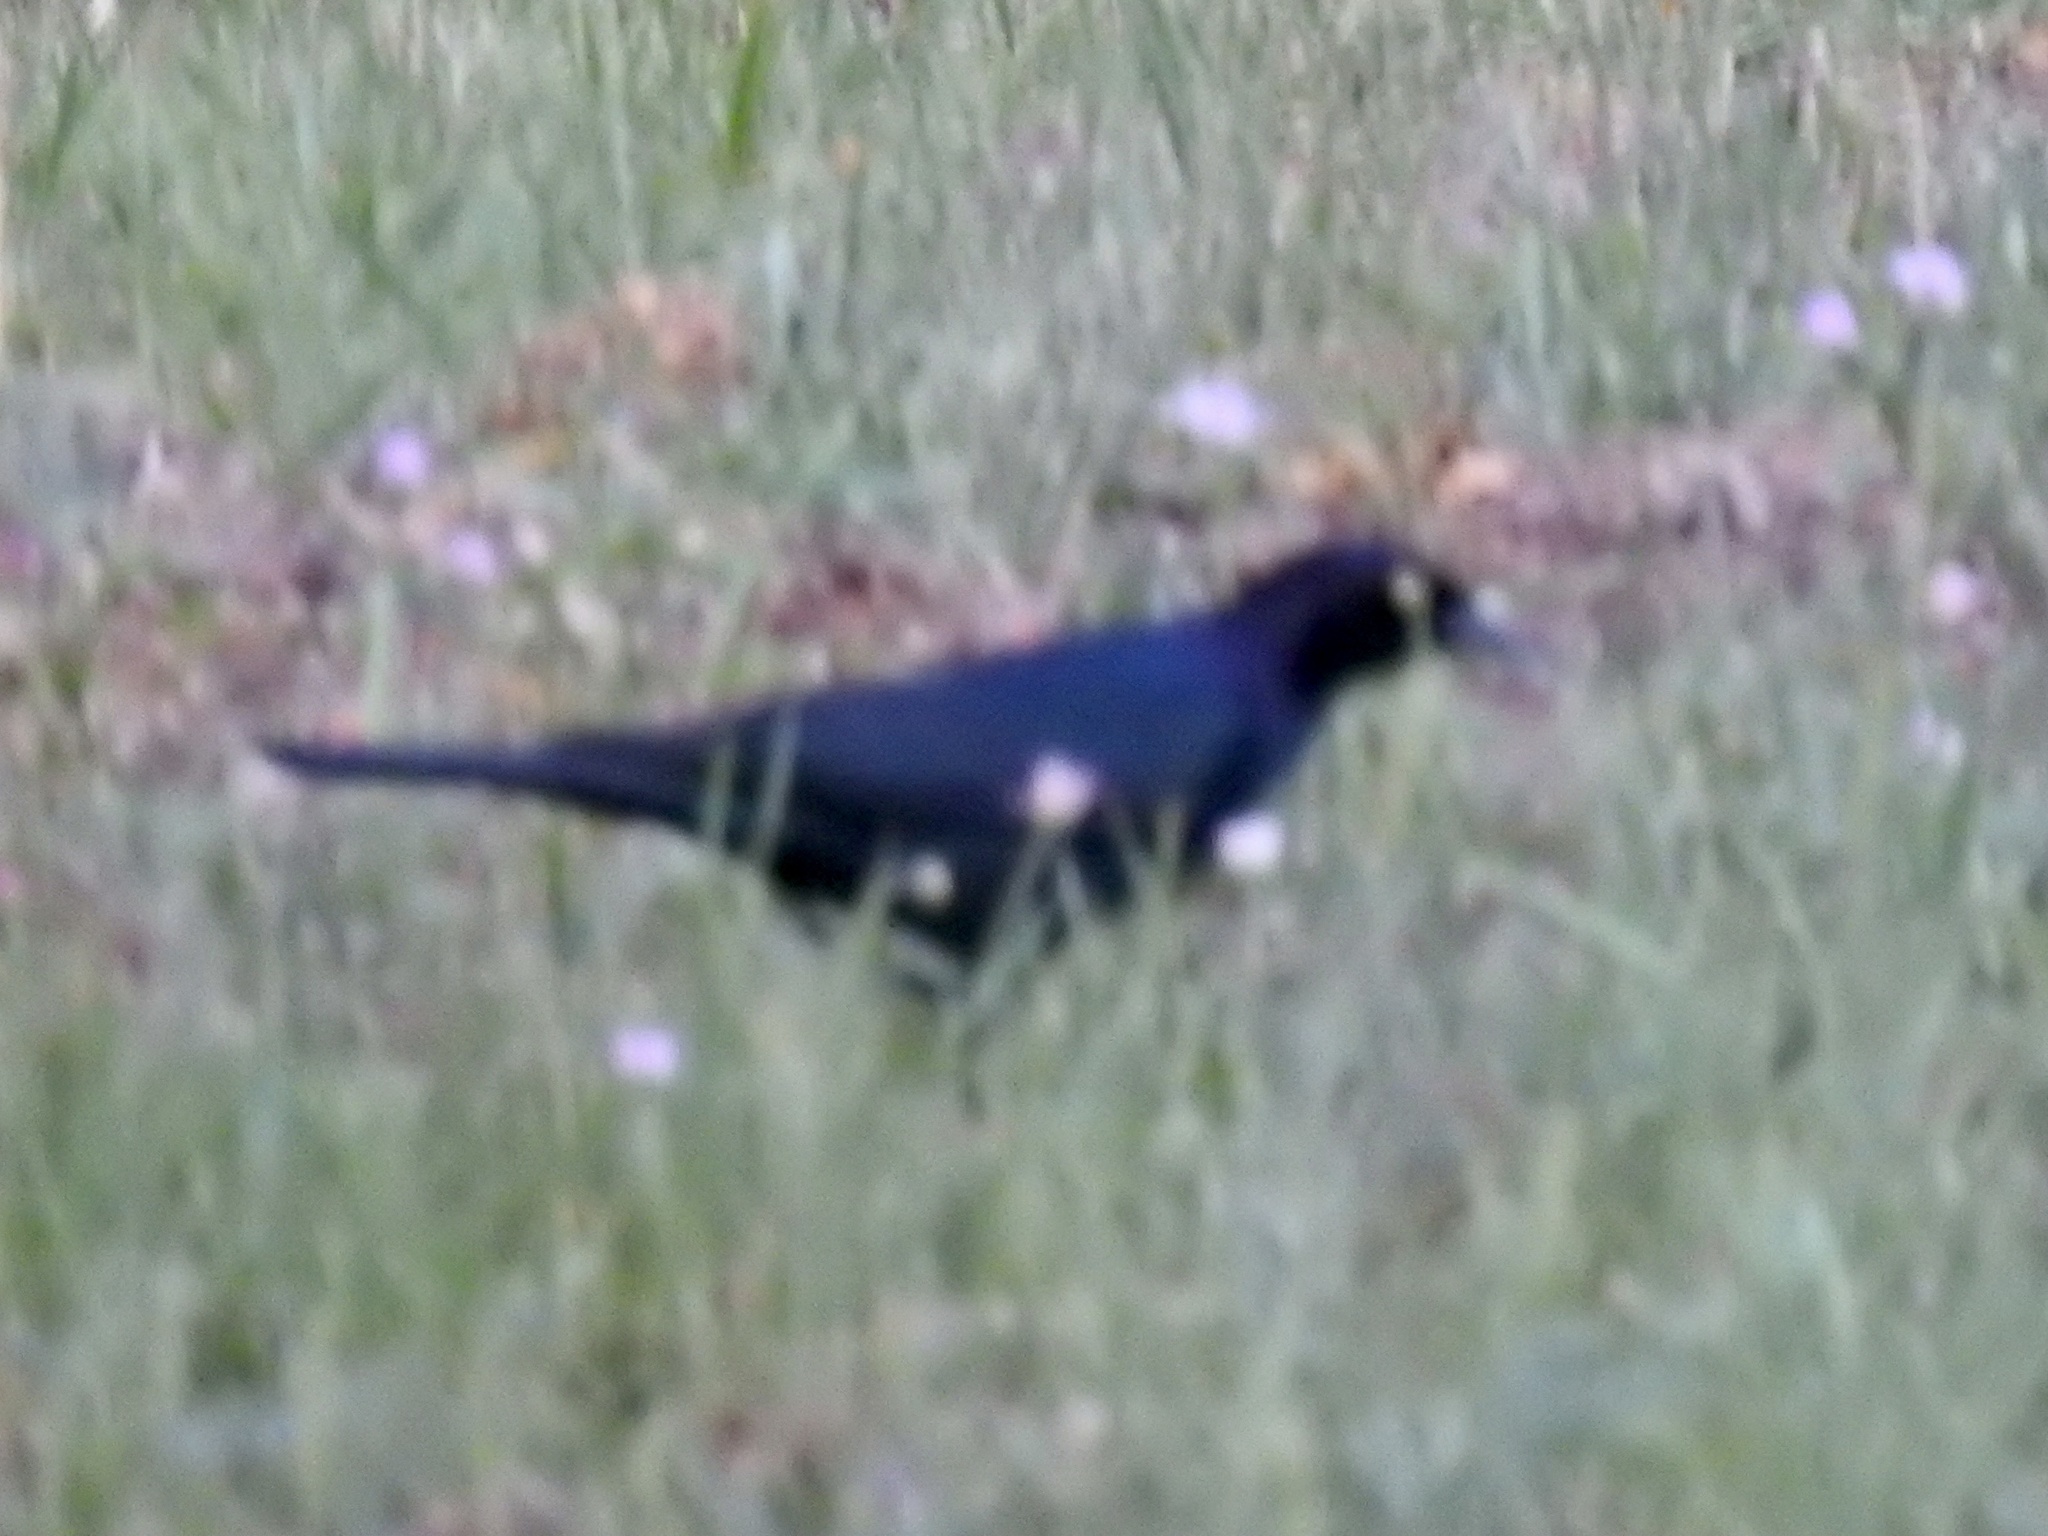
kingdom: Animalia
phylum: Chordata
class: Aves
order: Passeriformes
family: Icteridae
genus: Euphagus
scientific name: Euphagus cyanocephalus
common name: Brewer's blackbird
